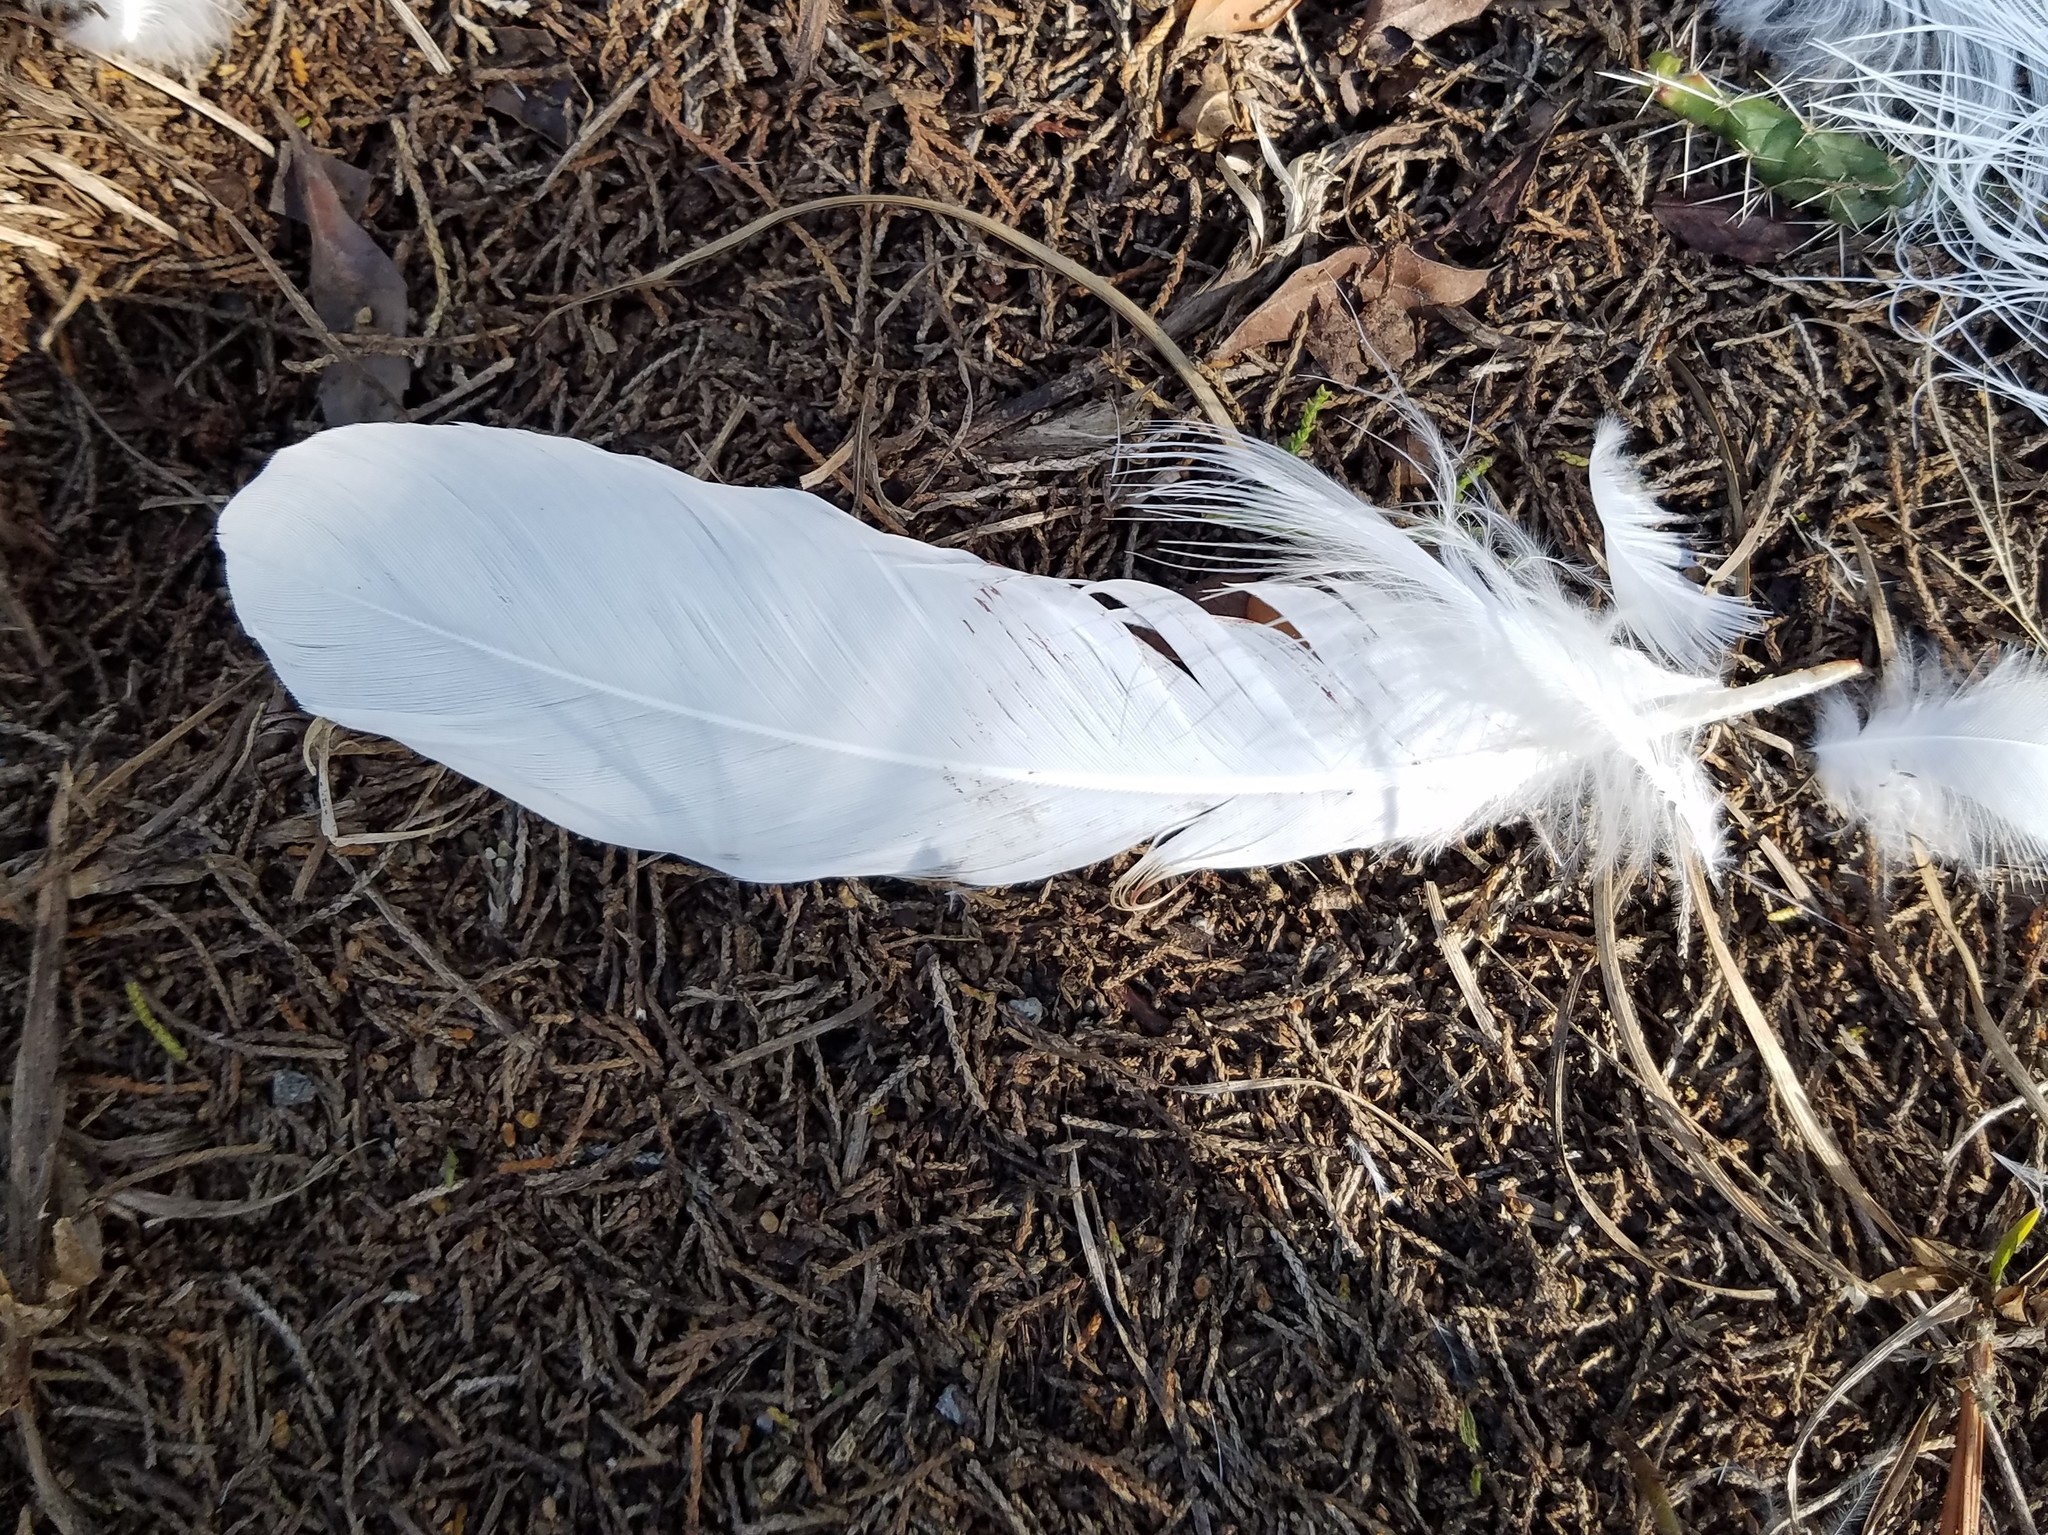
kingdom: Animalia
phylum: Chordata
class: Aves
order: Pelecaniformes
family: Ardeidae
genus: Egretta
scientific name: Egretta thula
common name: Snowy egret
